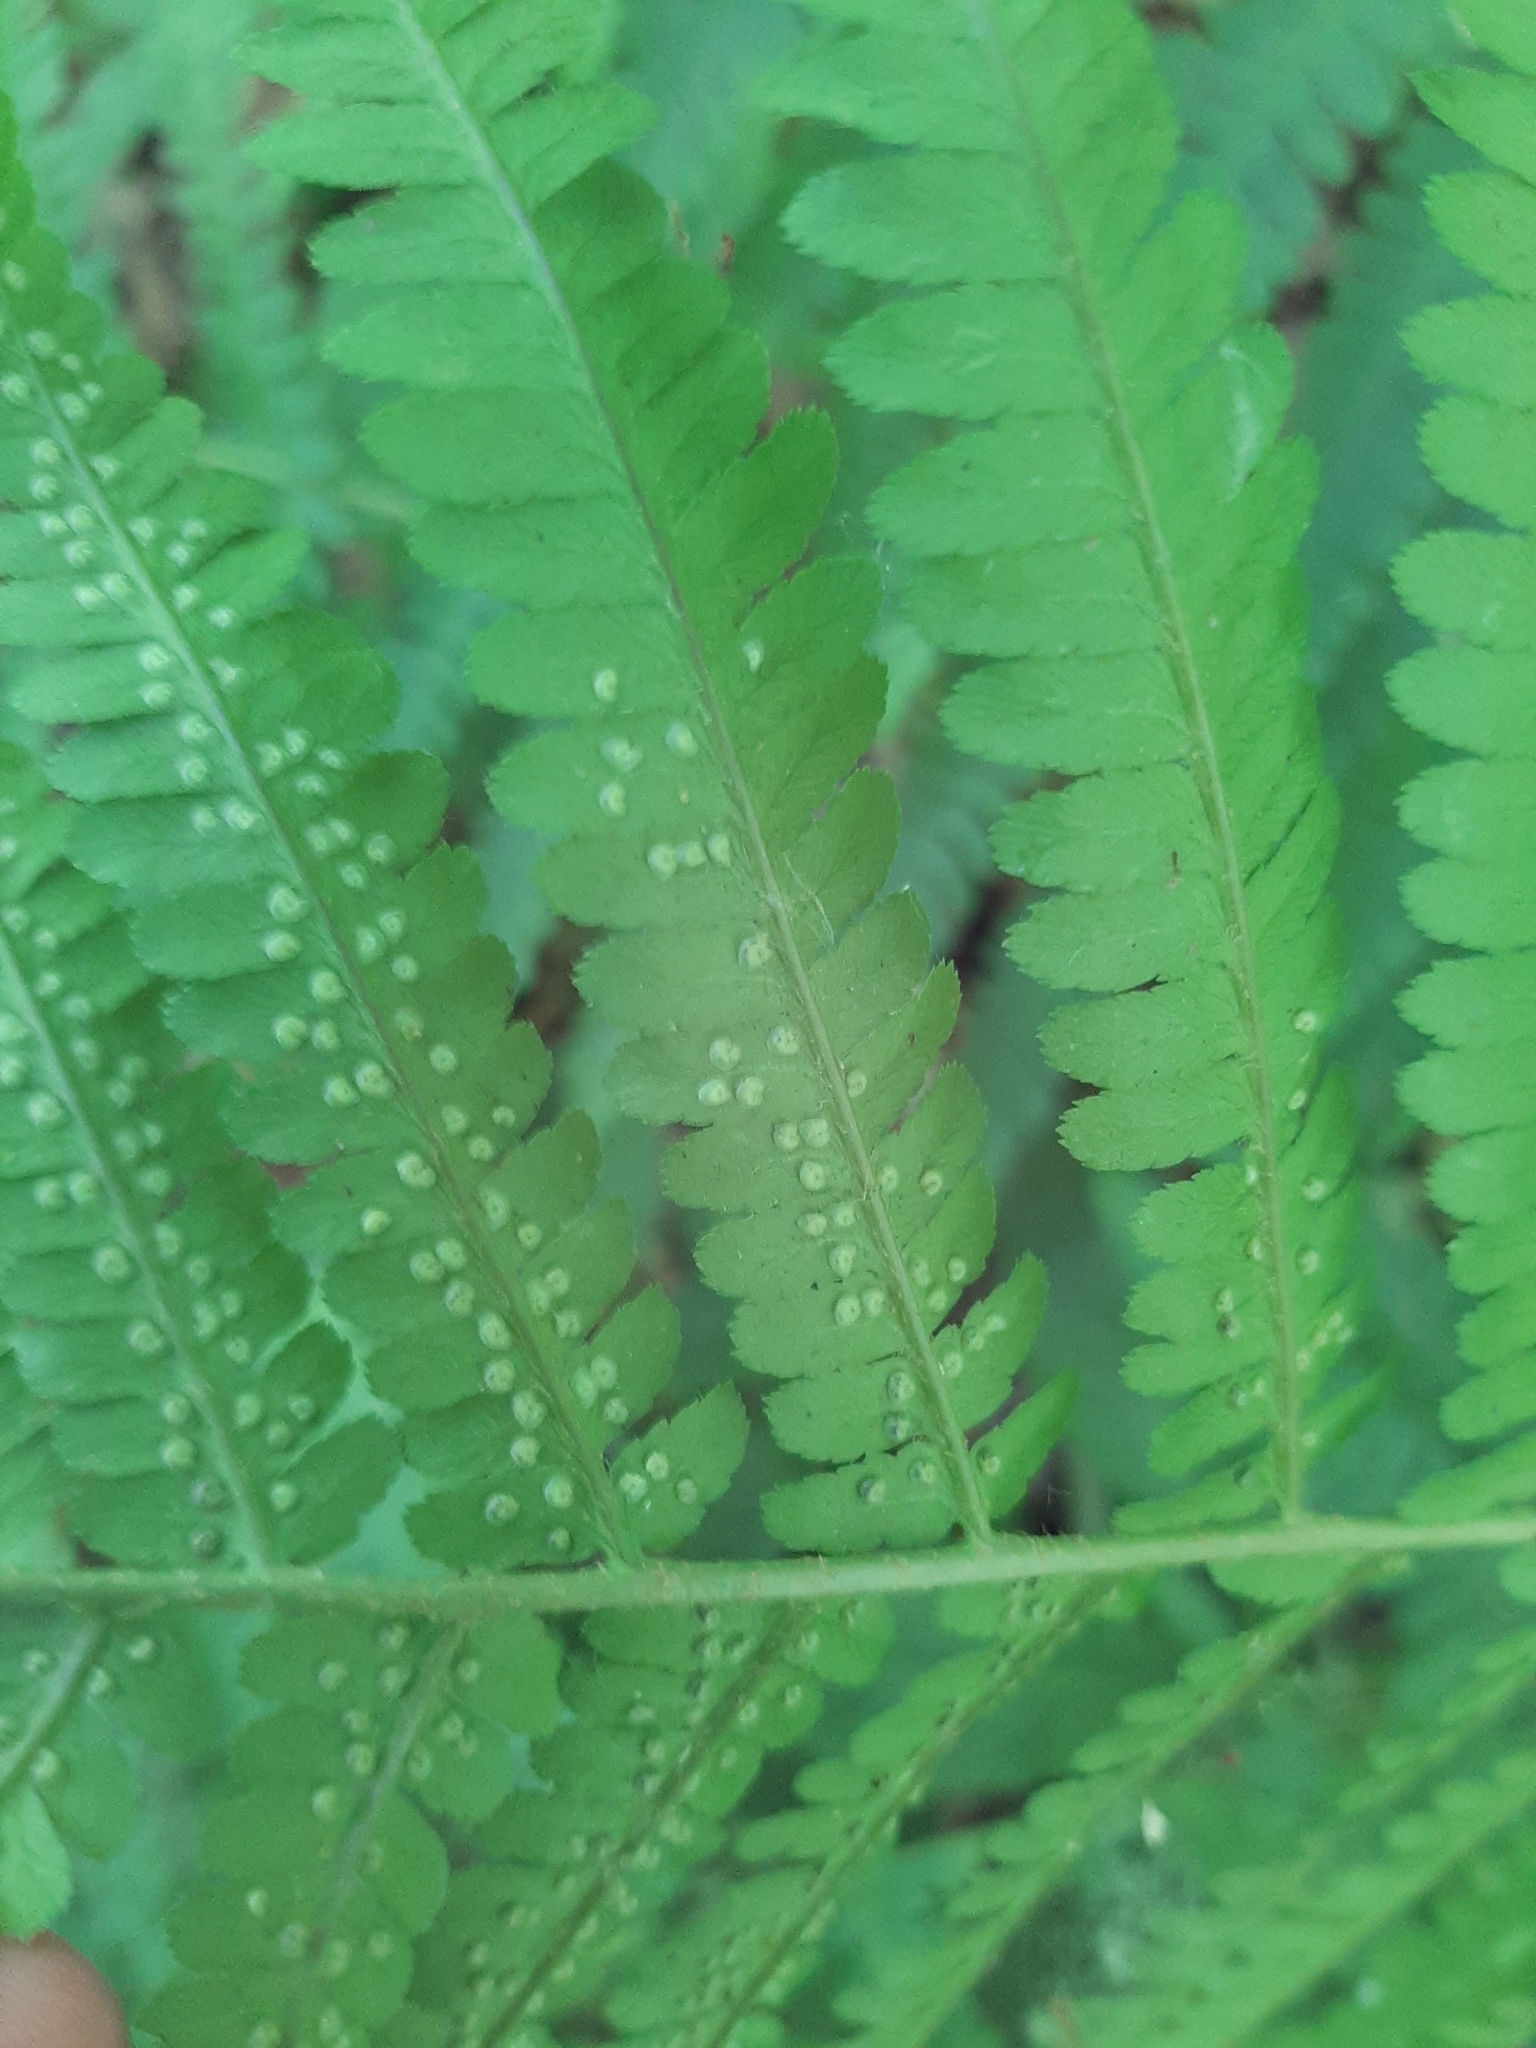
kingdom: Plantae
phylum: Tracheophyta
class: Polypodiopsida
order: Polypodiales
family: Dryopteridaceae
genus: Dryopteris
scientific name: Dryopteris filix-mas
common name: Male fern
